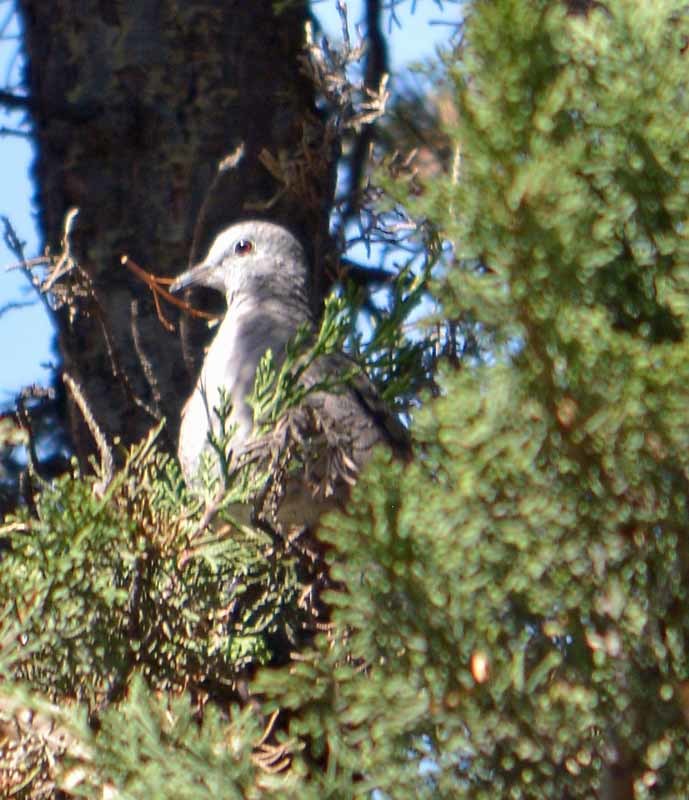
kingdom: Animalia
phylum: Chordata
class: Aves
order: Columbiformes
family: Columbidae
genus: Columbina
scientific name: Columbina inca
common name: Inca dove
